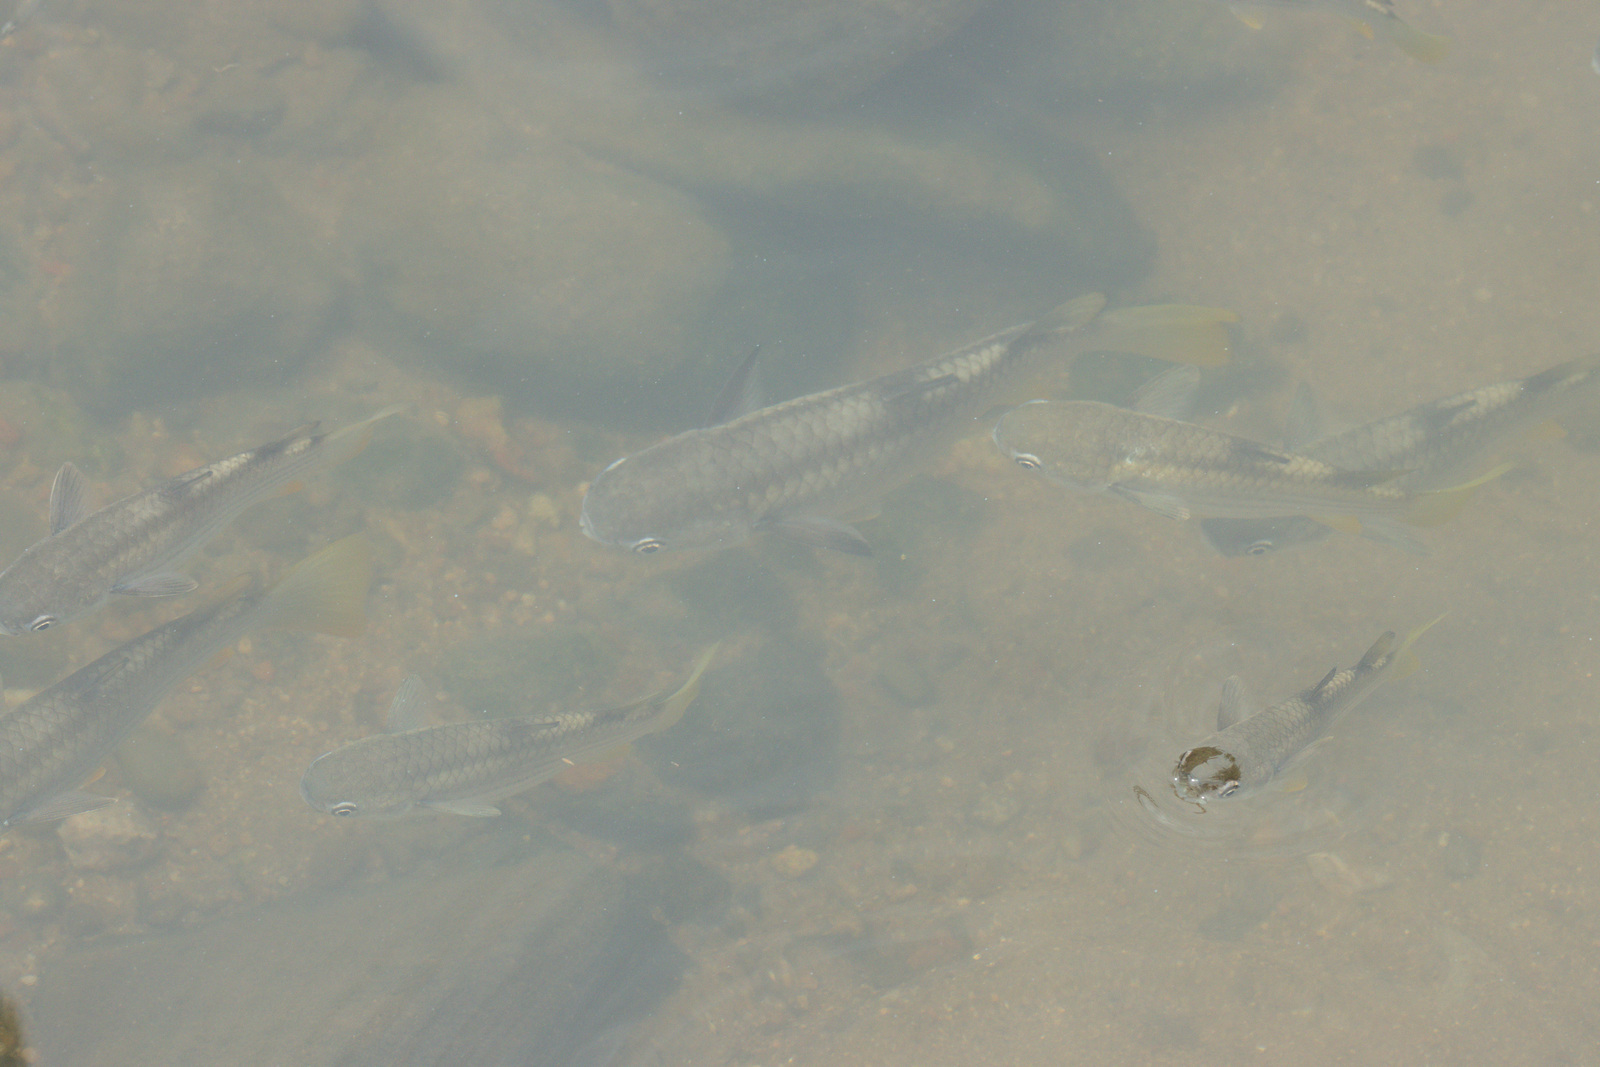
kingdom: Animalia
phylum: Chordata
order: Mugiliformes
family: Mugilidae
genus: Ellochelon
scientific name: Ellochelon vaigiensis
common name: Squaretail mullet
